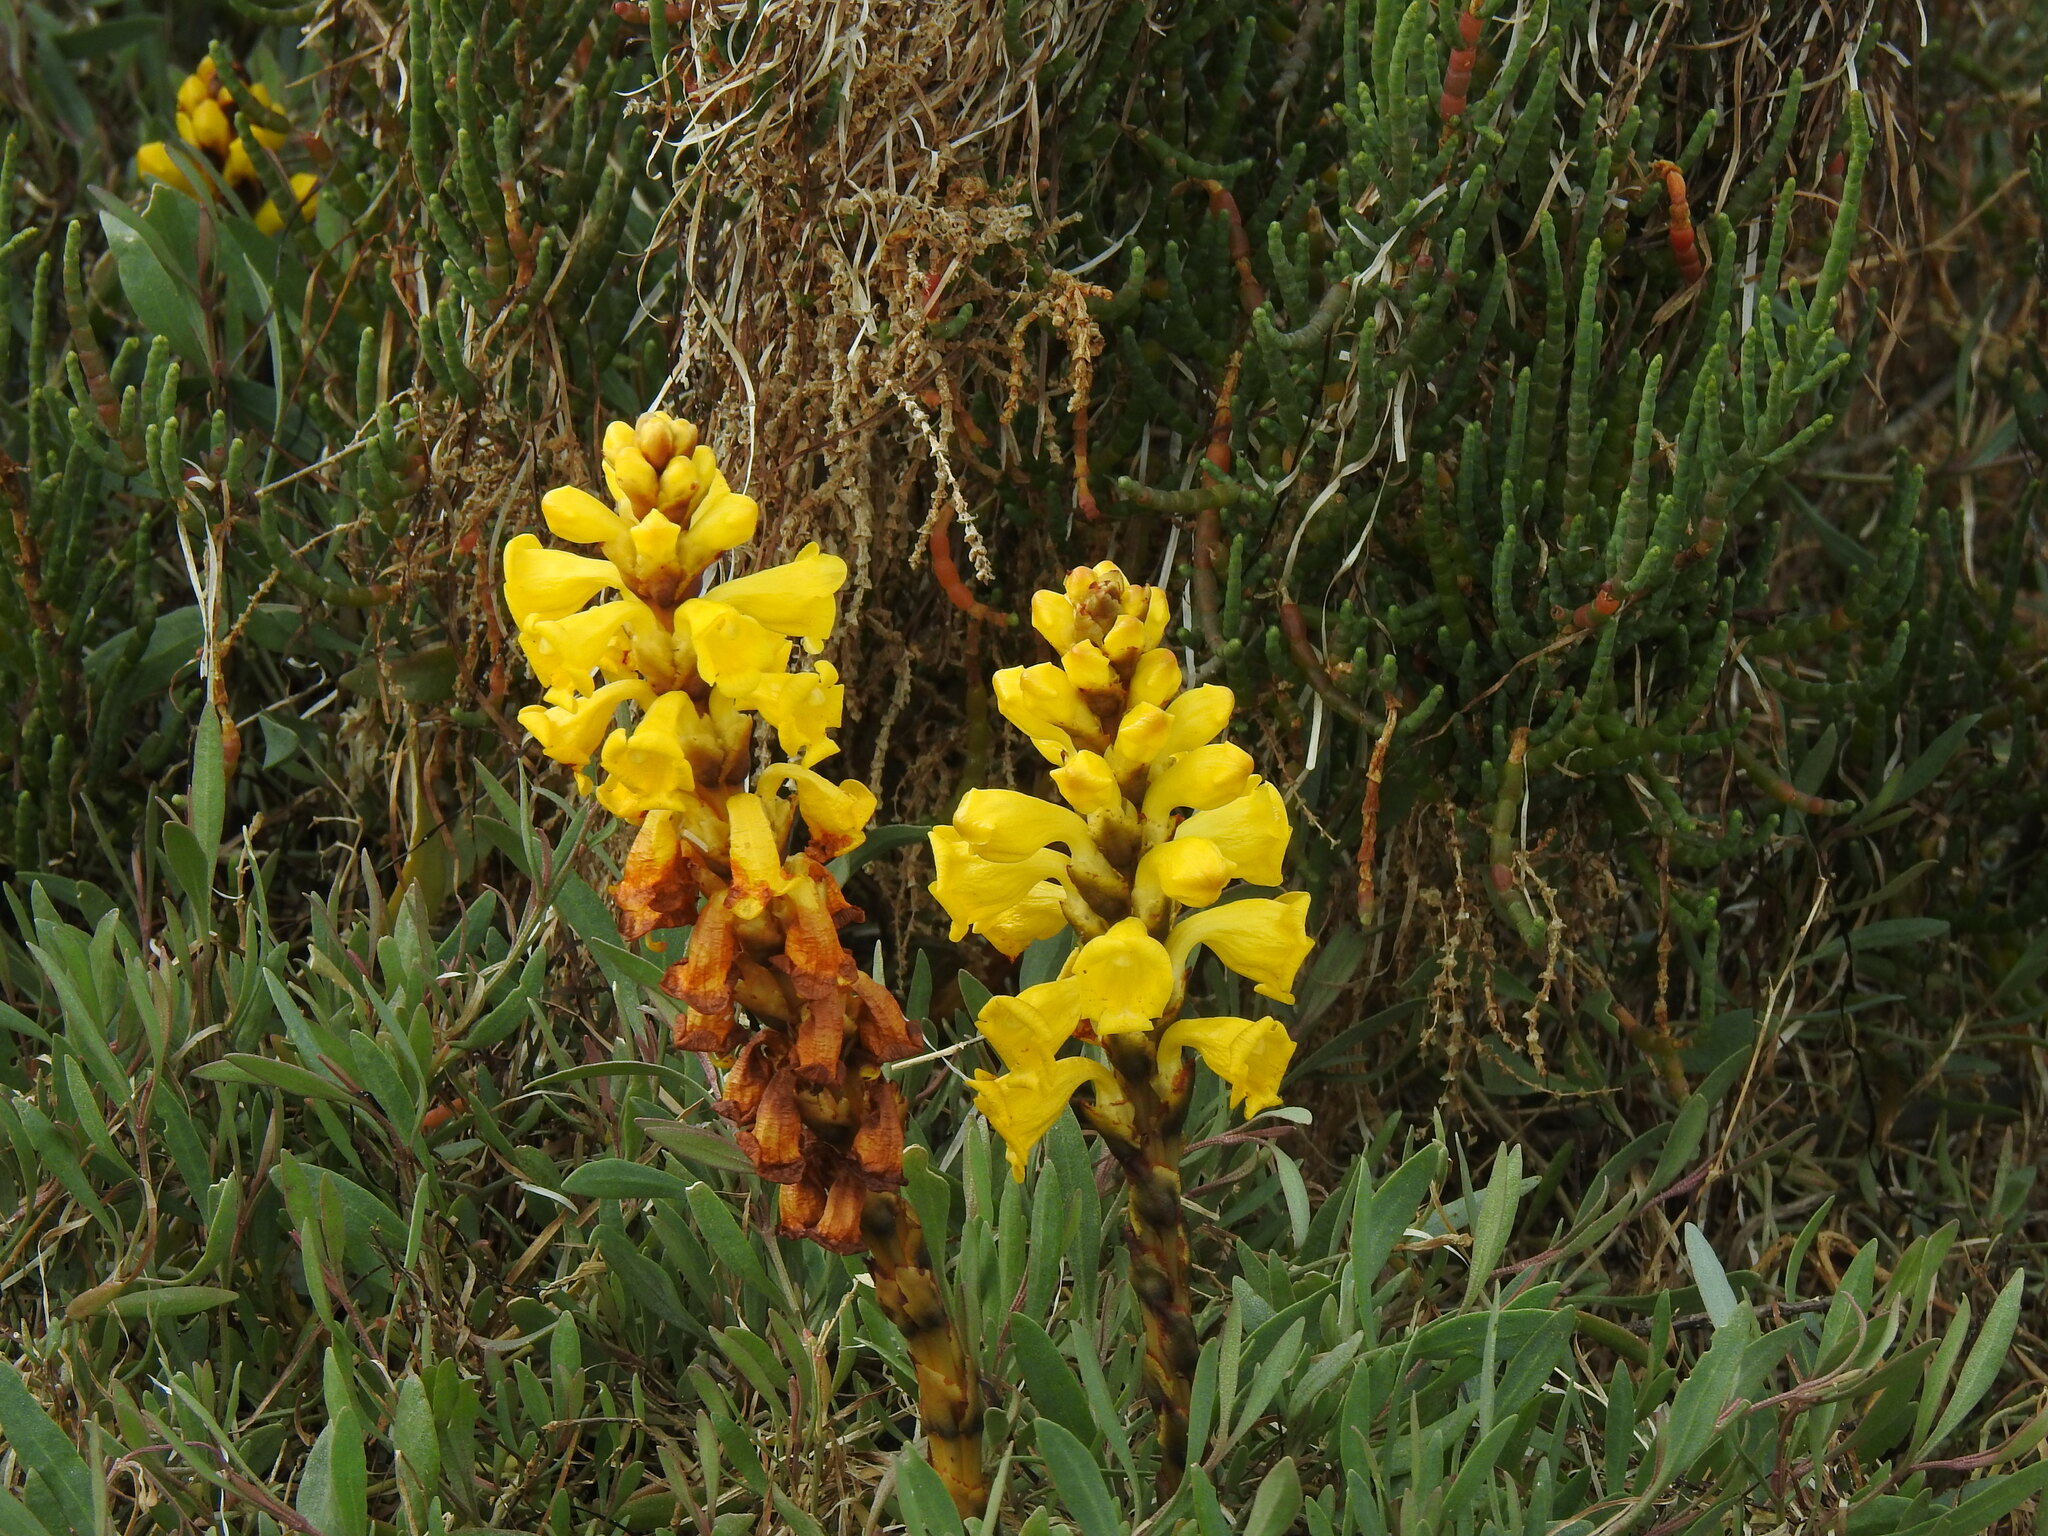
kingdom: Plantae
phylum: Tracheophyta
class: Magnoliopsida
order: Lamiales
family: Orobanchaceae
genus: Cistanche
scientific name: Cistanche phelypaea
